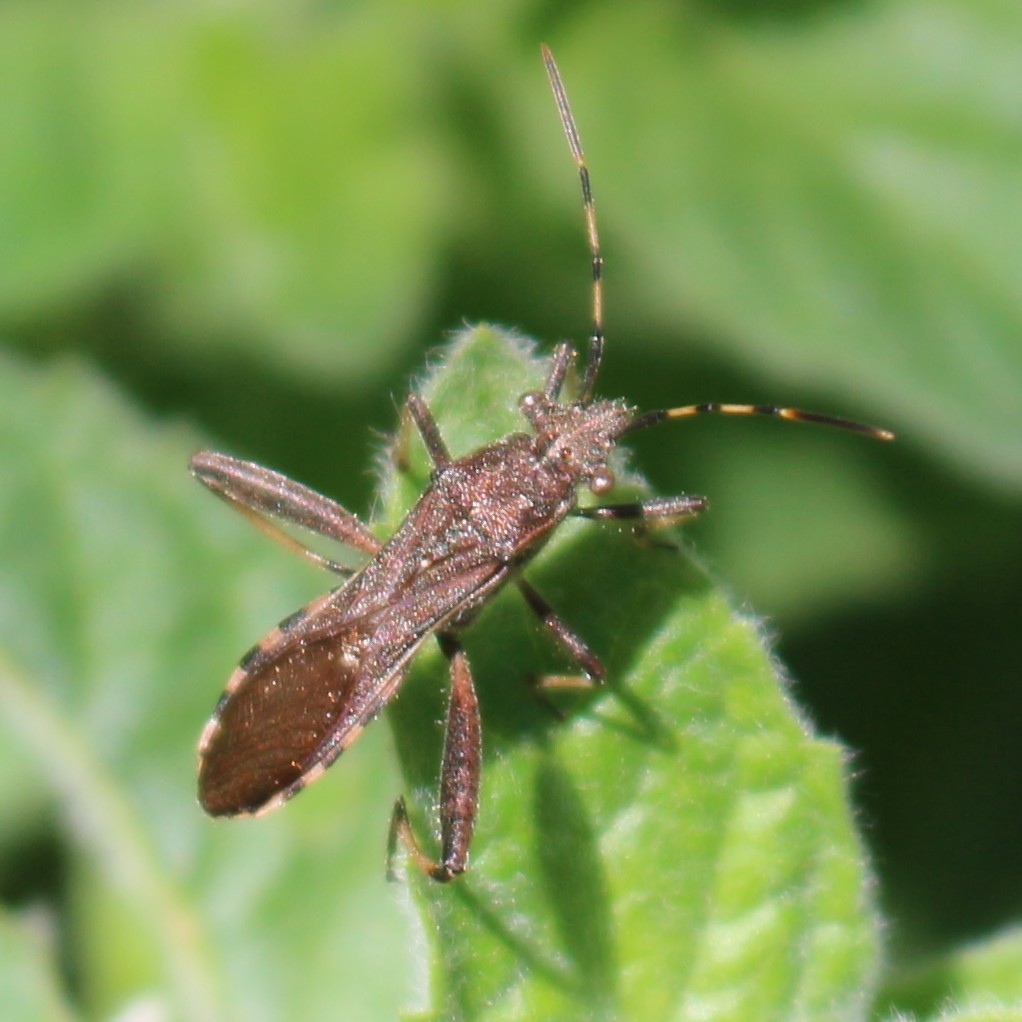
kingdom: Animalia
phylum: Arthropoda
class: Insecta
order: Hemiptera
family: Alydidae
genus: Camptopus
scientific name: Camptopus lateralis
